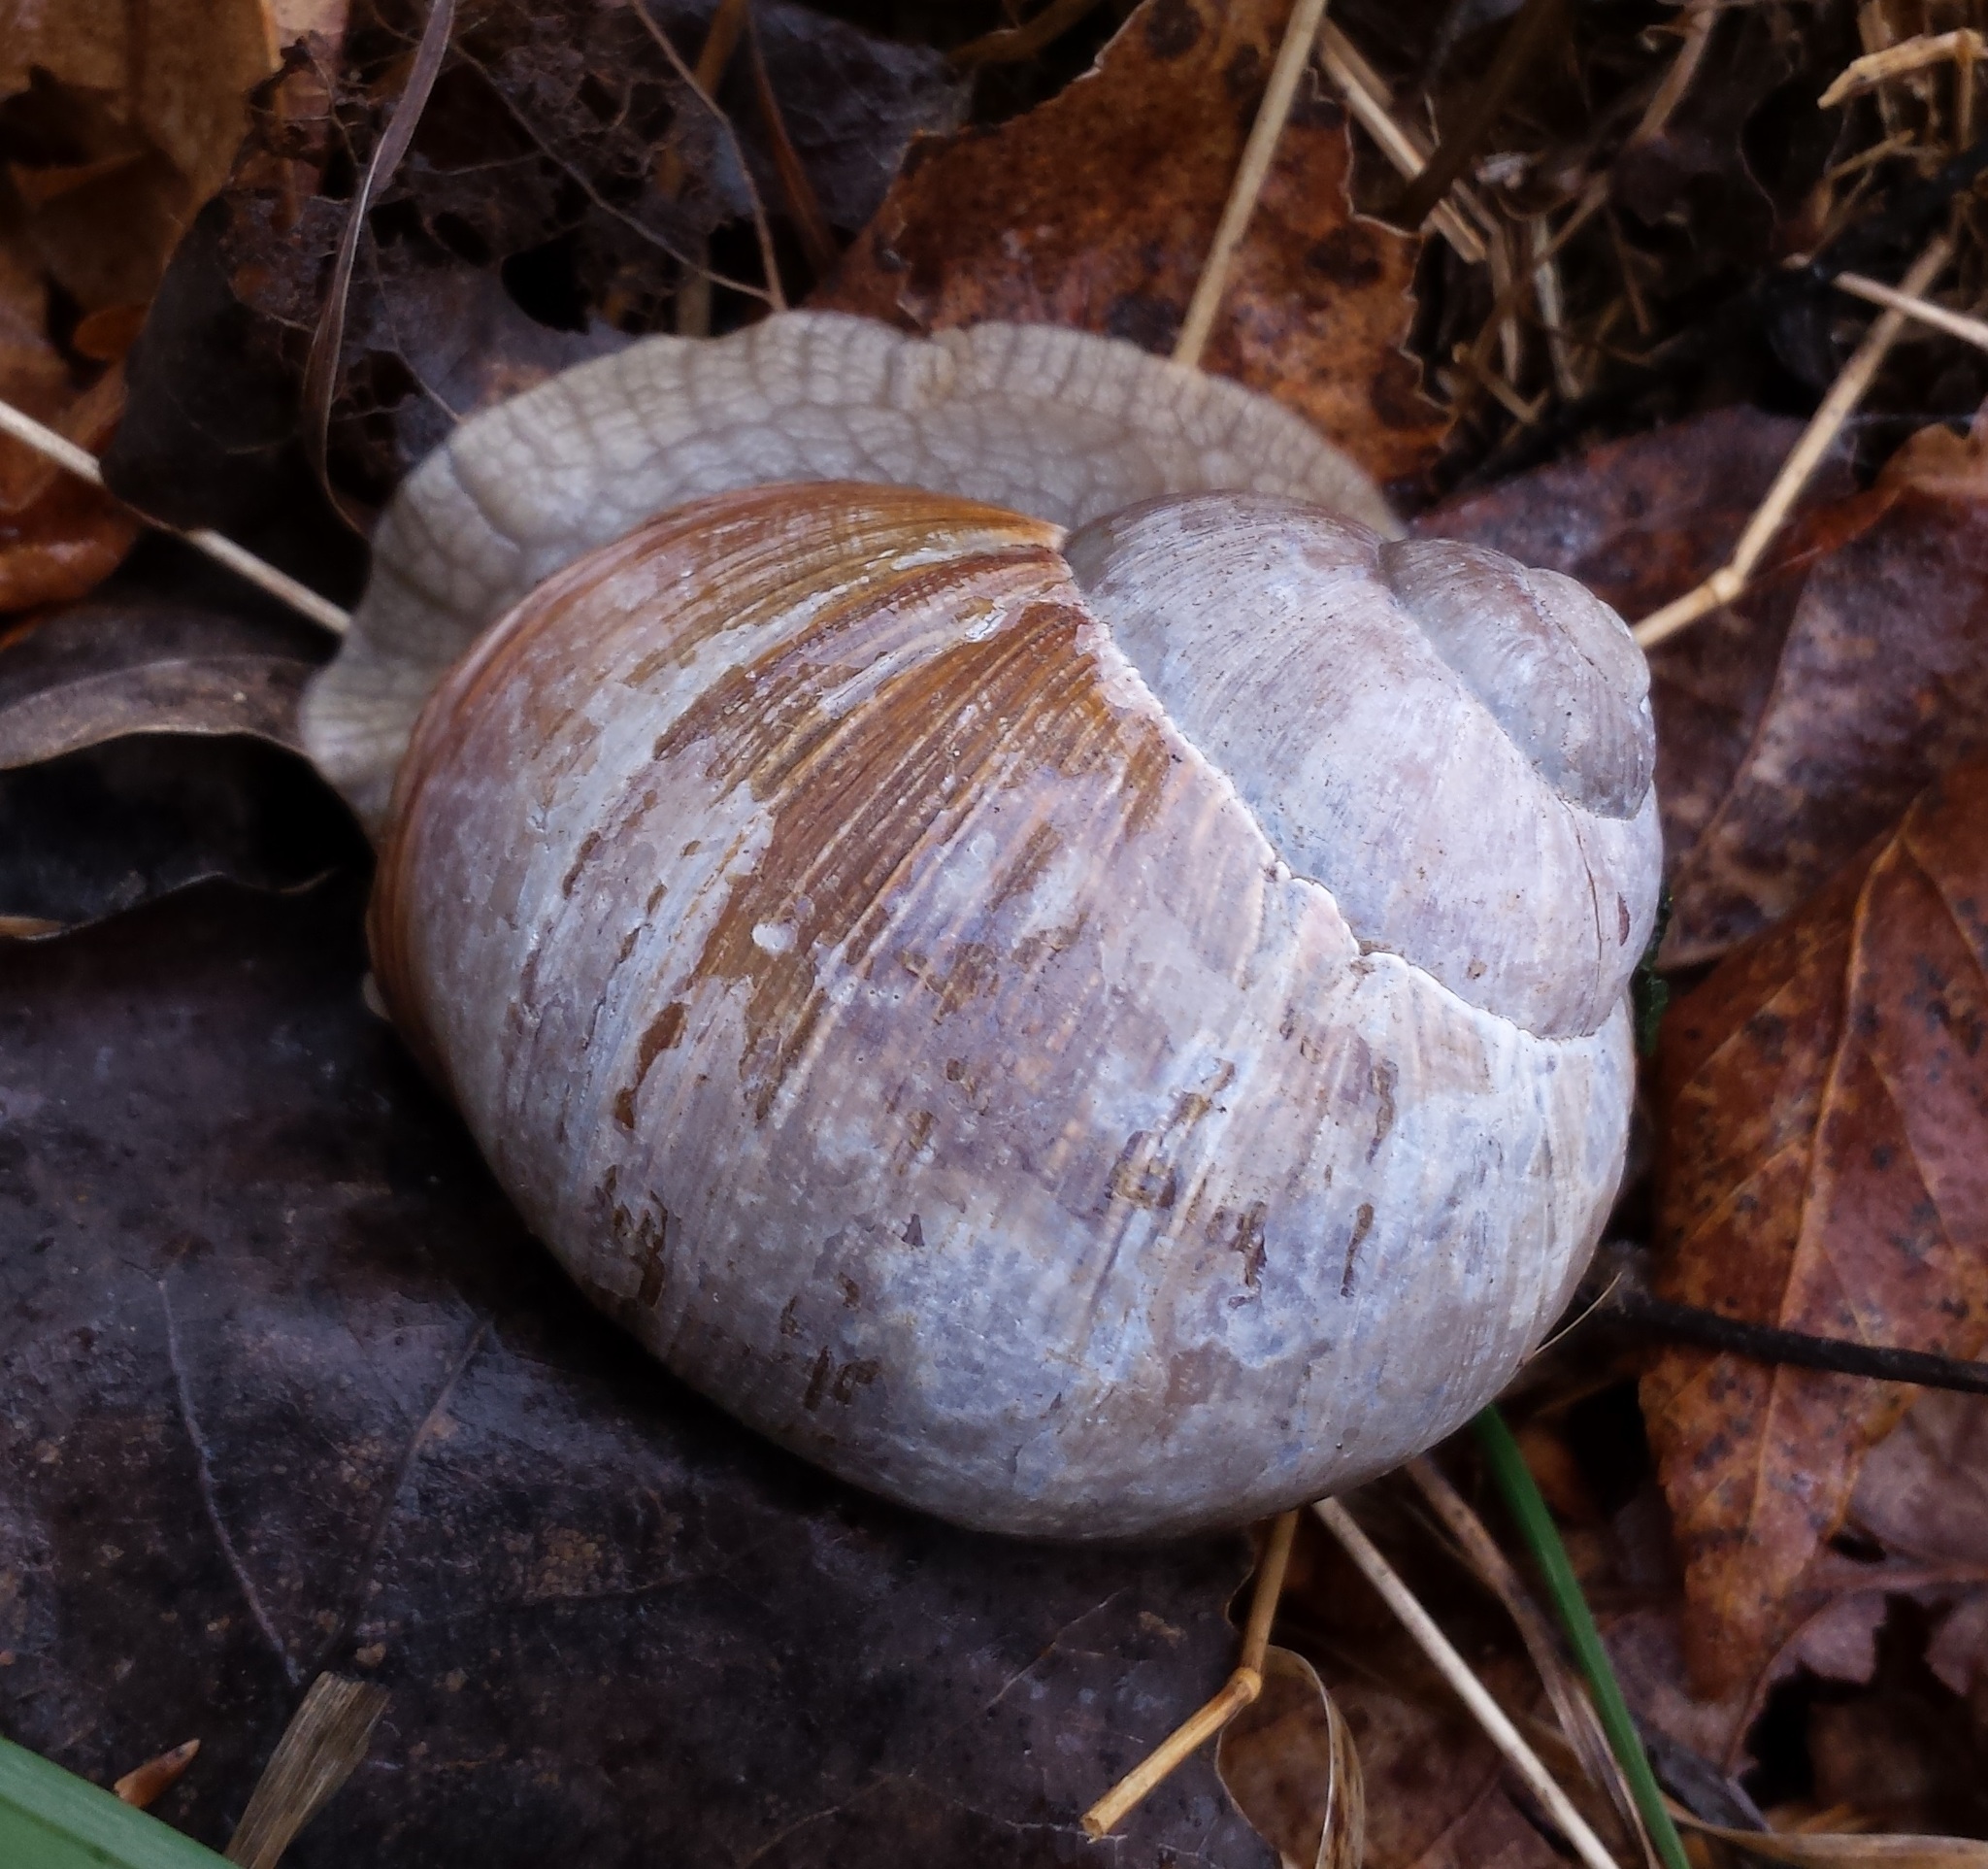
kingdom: Animalia
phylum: Mollusca
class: Gastropoda
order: Stylommatophora
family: Helicidae
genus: Helix
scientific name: Helix pomatia
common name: Roman snail
